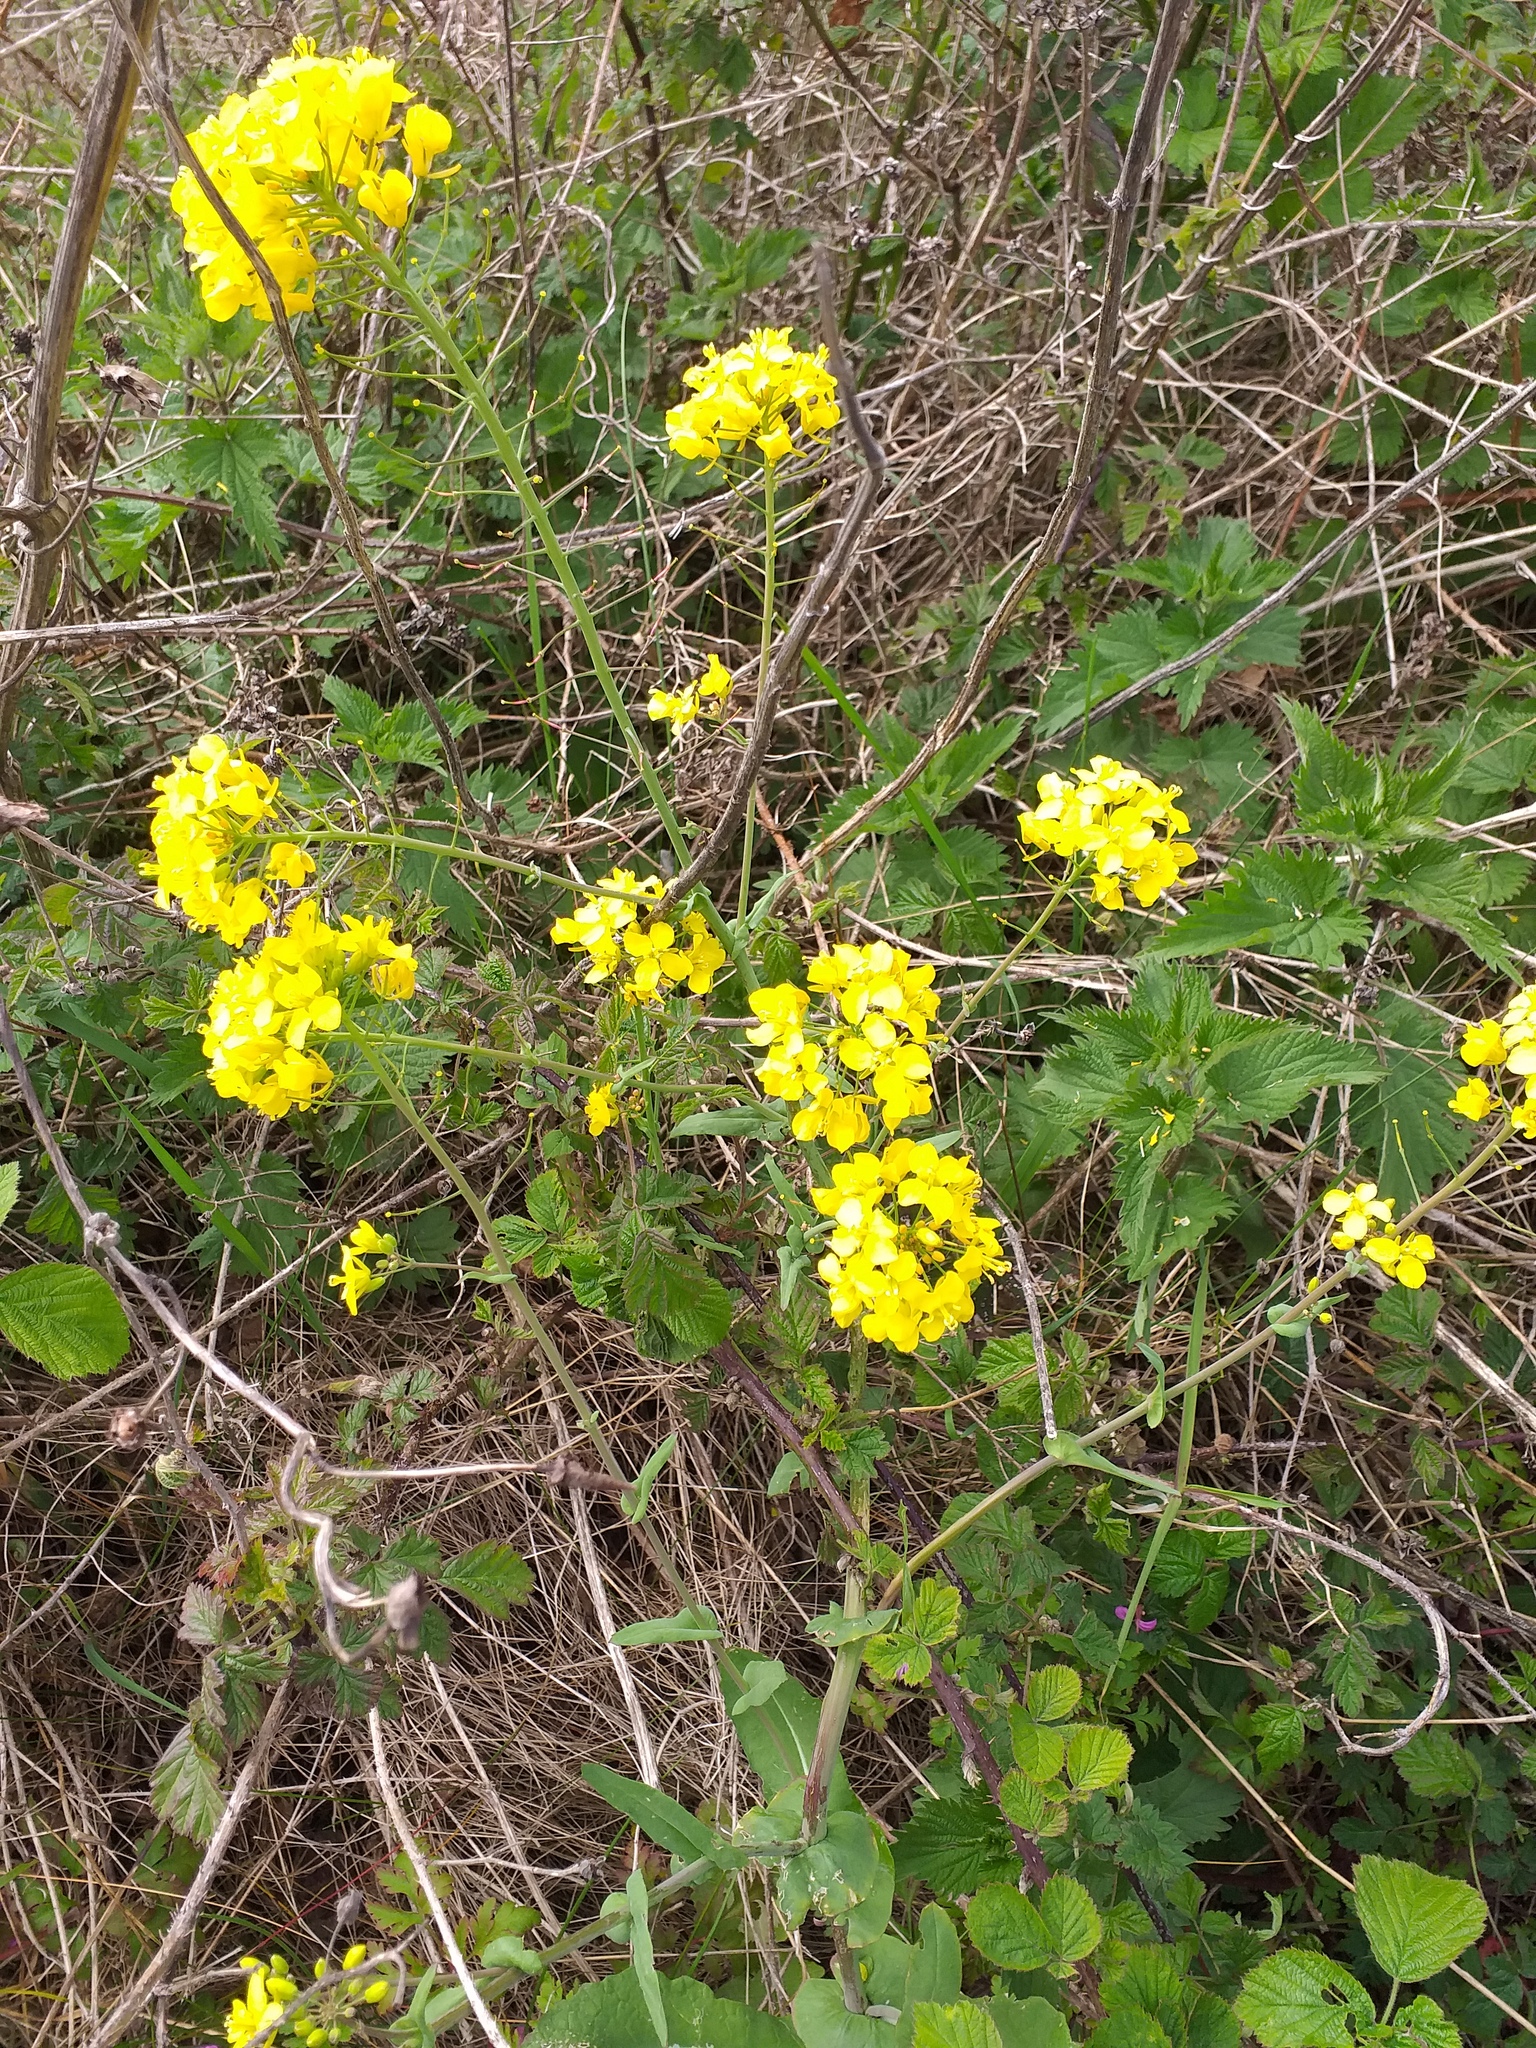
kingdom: Plantae
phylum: Tracheophyta
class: Magnoliopsida
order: Brassicales
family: Brassicaceae
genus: Brassica
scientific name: Brassica rapa
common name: Field mustard
